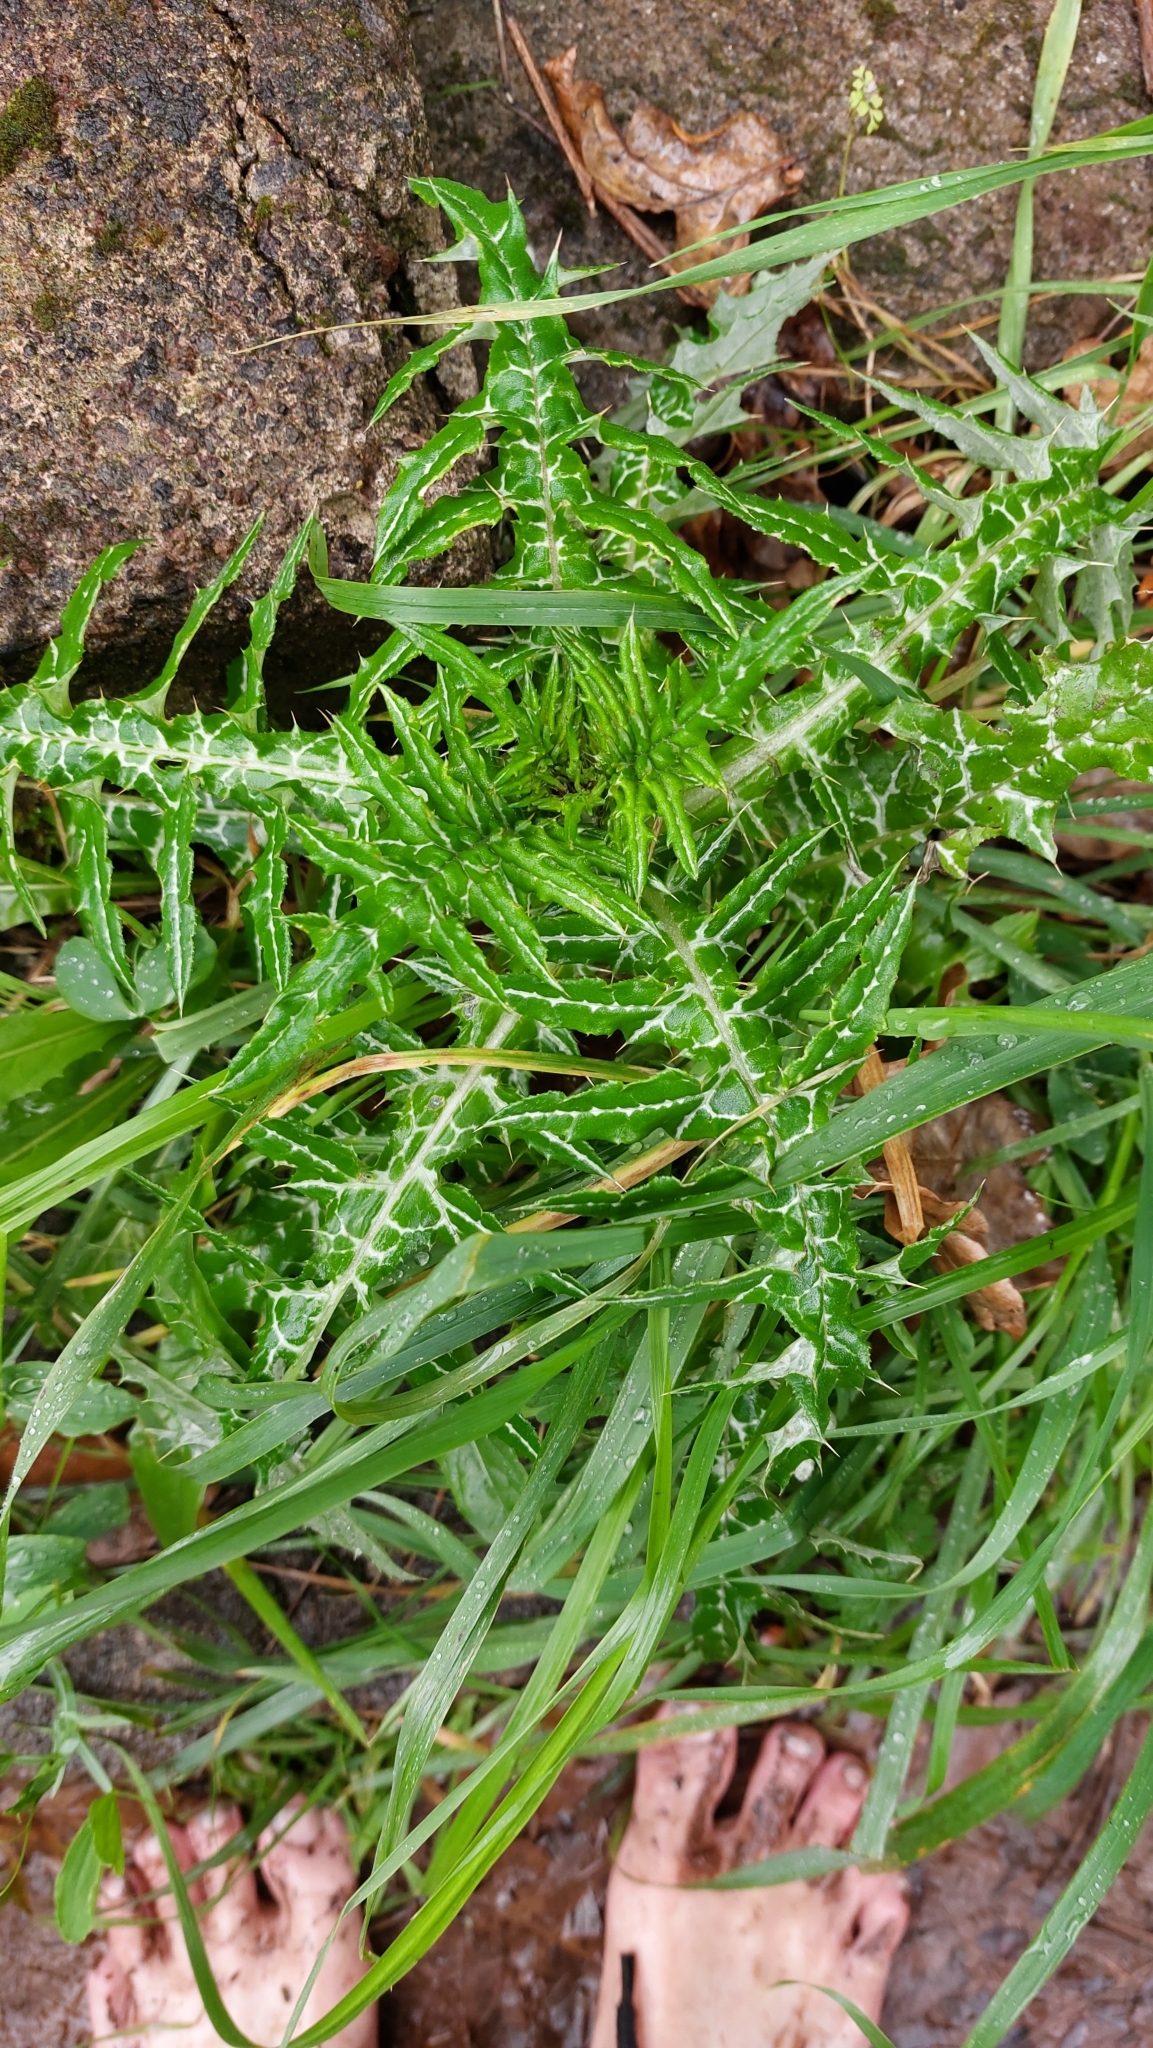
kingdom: Plantae
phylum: Tracheophyta
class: Magnoliopsida
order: Asterales
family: Asteraceae
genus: Galactites
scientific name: Galactites tomentosa
